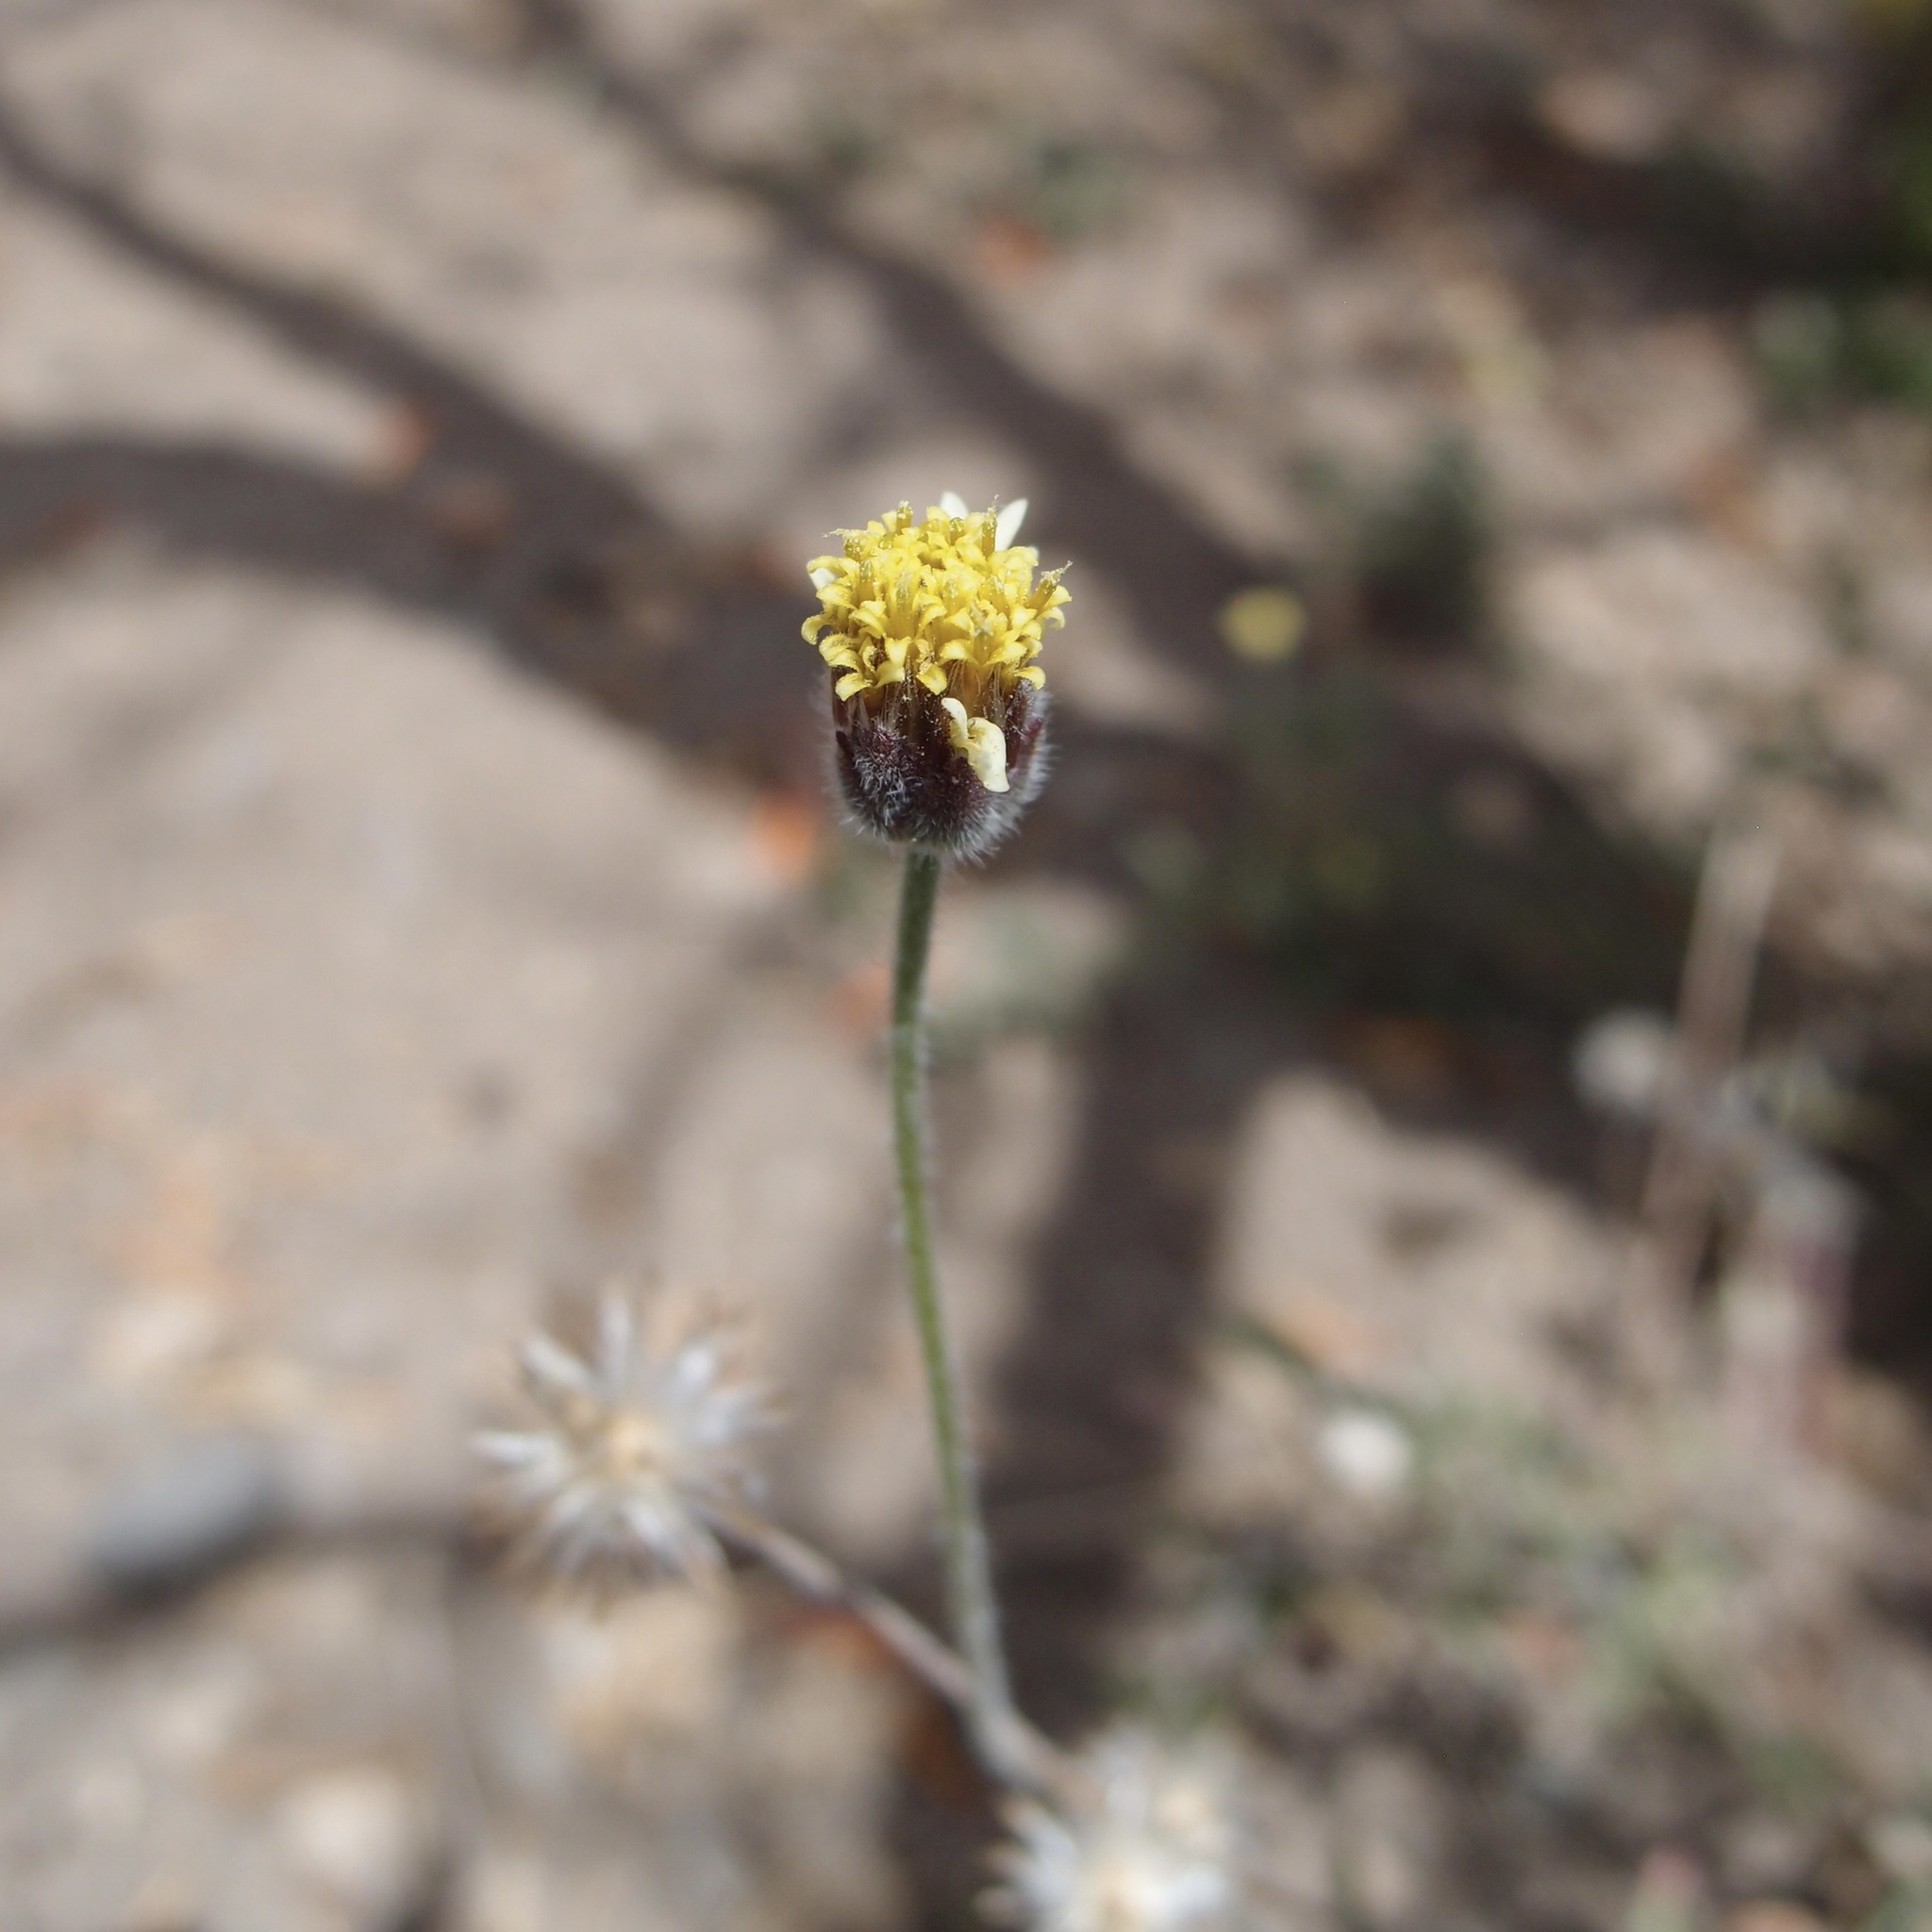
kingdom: Plantae
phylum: Tracheophyta
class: Magnoliopsida
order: Asterales
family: Asteraceae
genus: Tridax
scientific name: Tridax procumbens
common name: Coatbuttons
